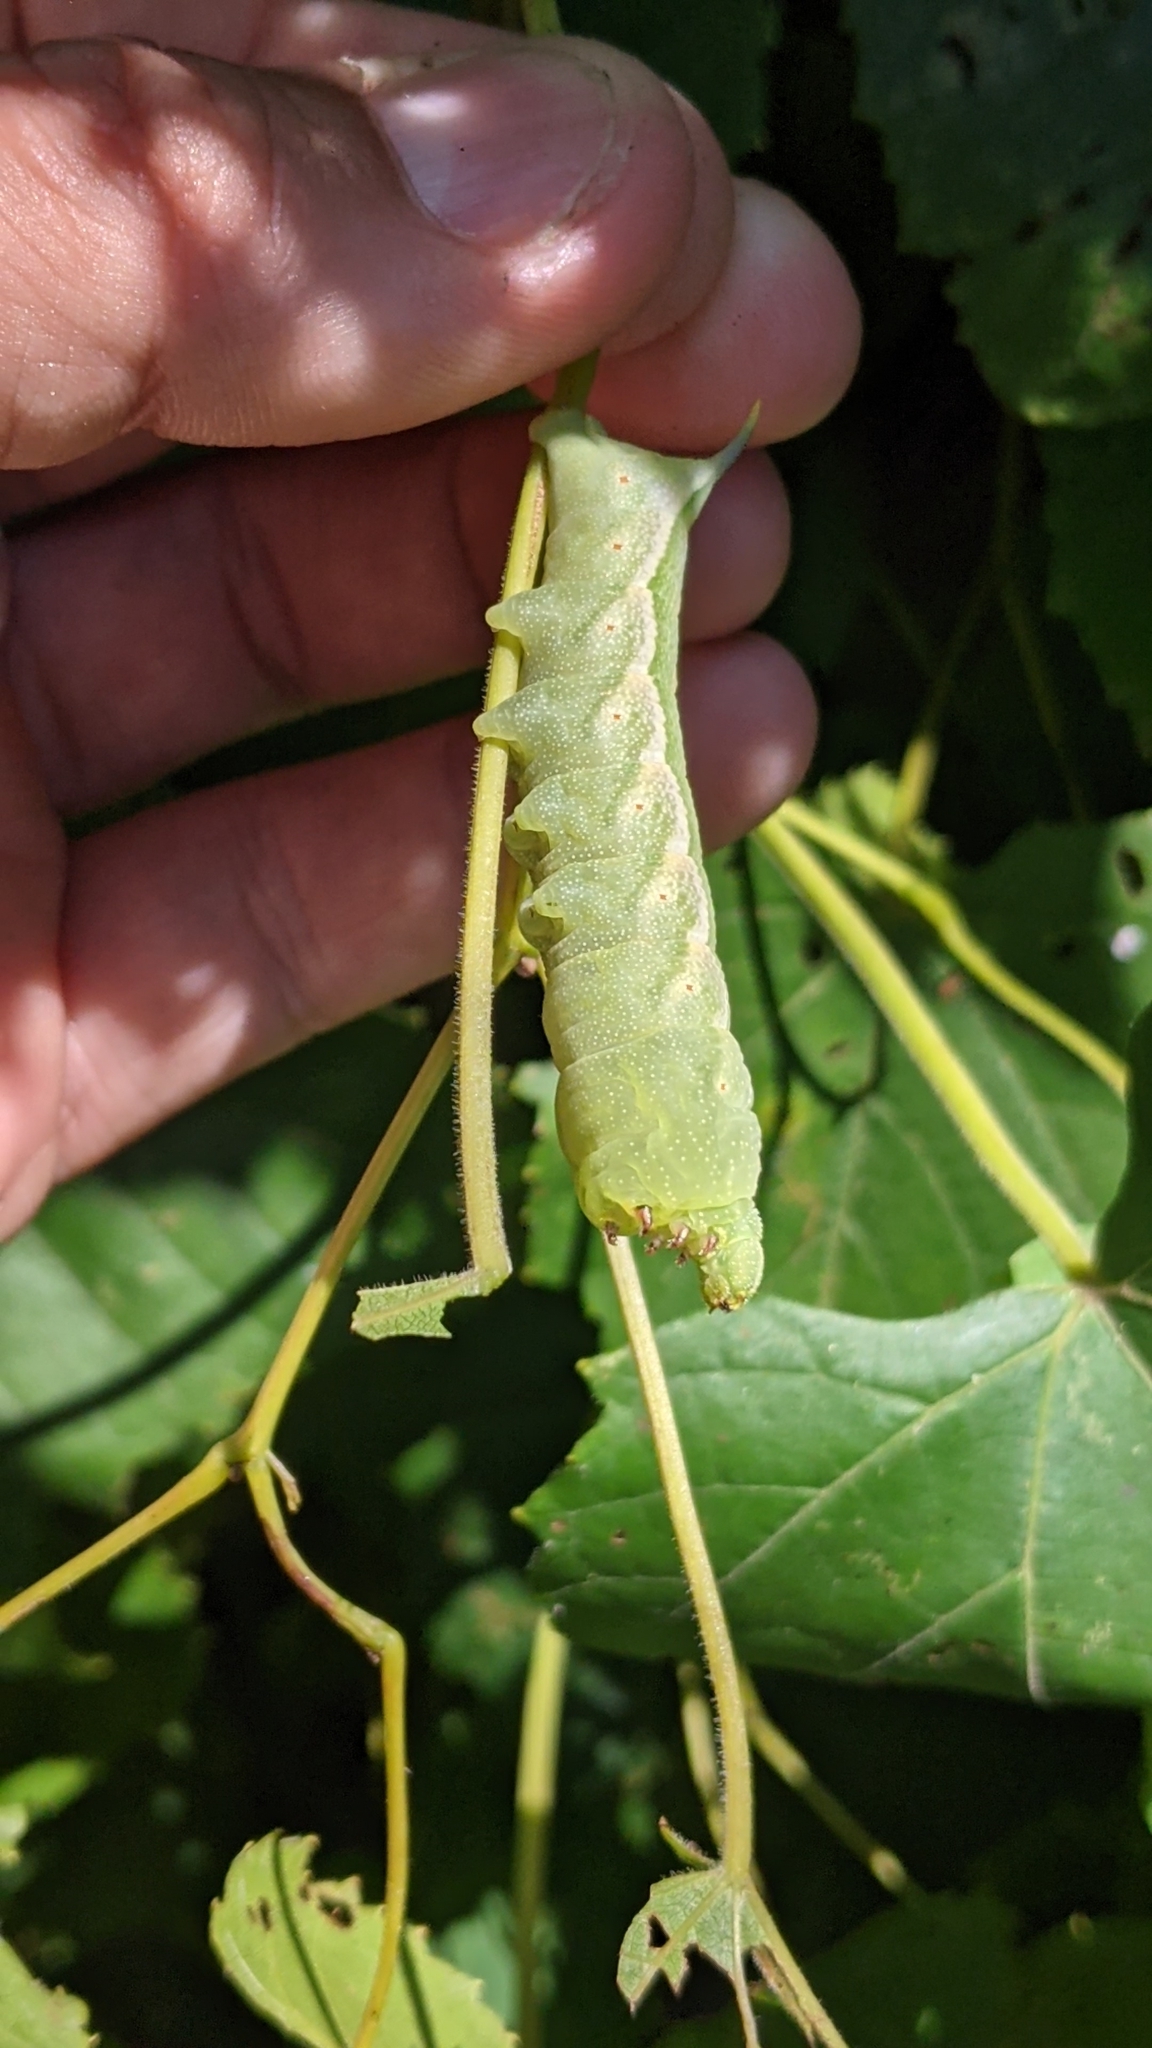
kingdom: Animalia
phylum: Arthropoda
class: Insecta
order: Lepidoptera
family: Sphingidae
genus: Darapsa
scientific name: Darapsa myron
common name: Hog sphinx
